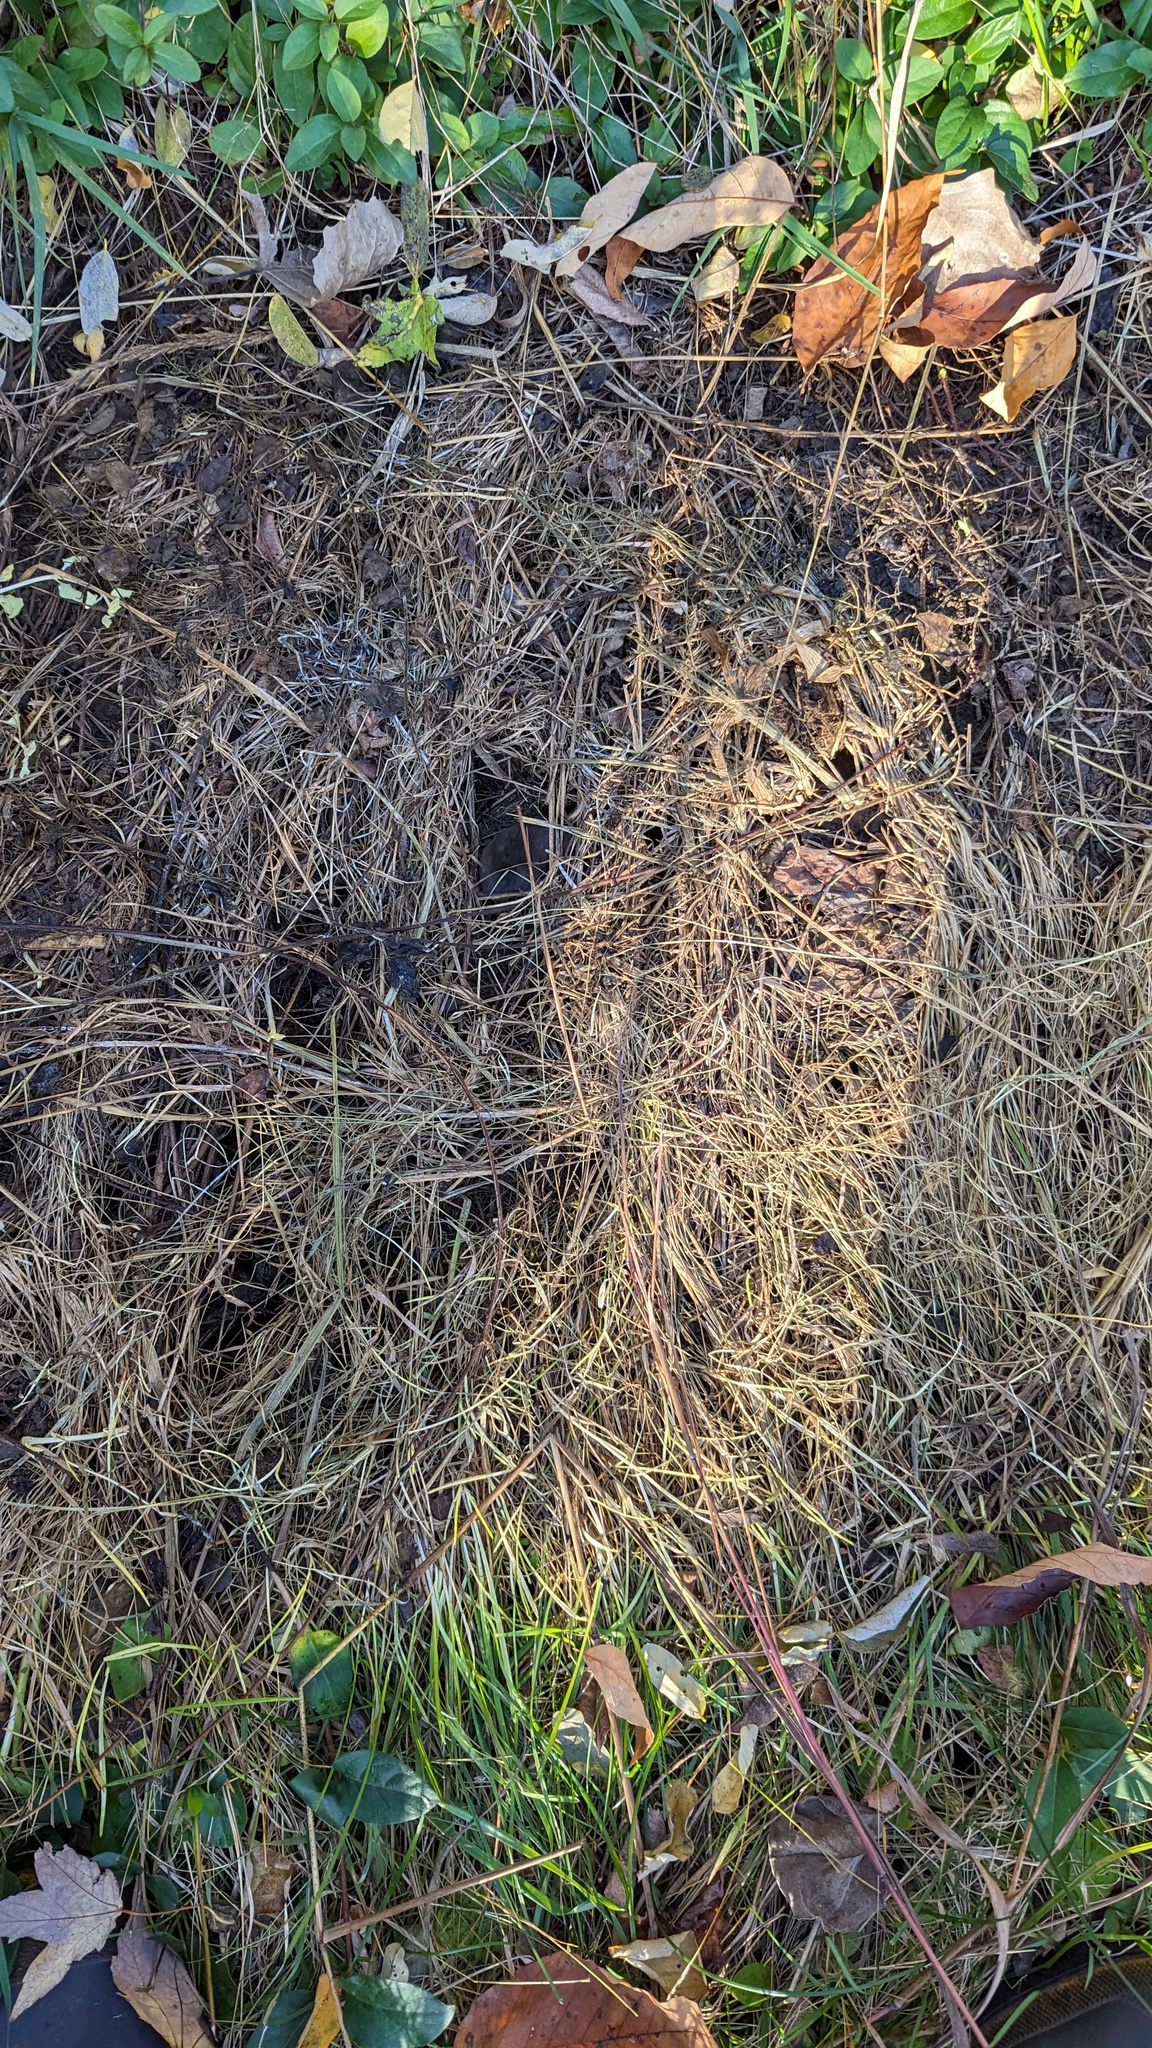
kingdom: Animalia
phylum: Chordata
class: Mammalia
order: Soricomorpha
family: Soricidae
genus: Blarina
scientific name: Blarina brevicauda
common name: Northern short-tailed shrew
